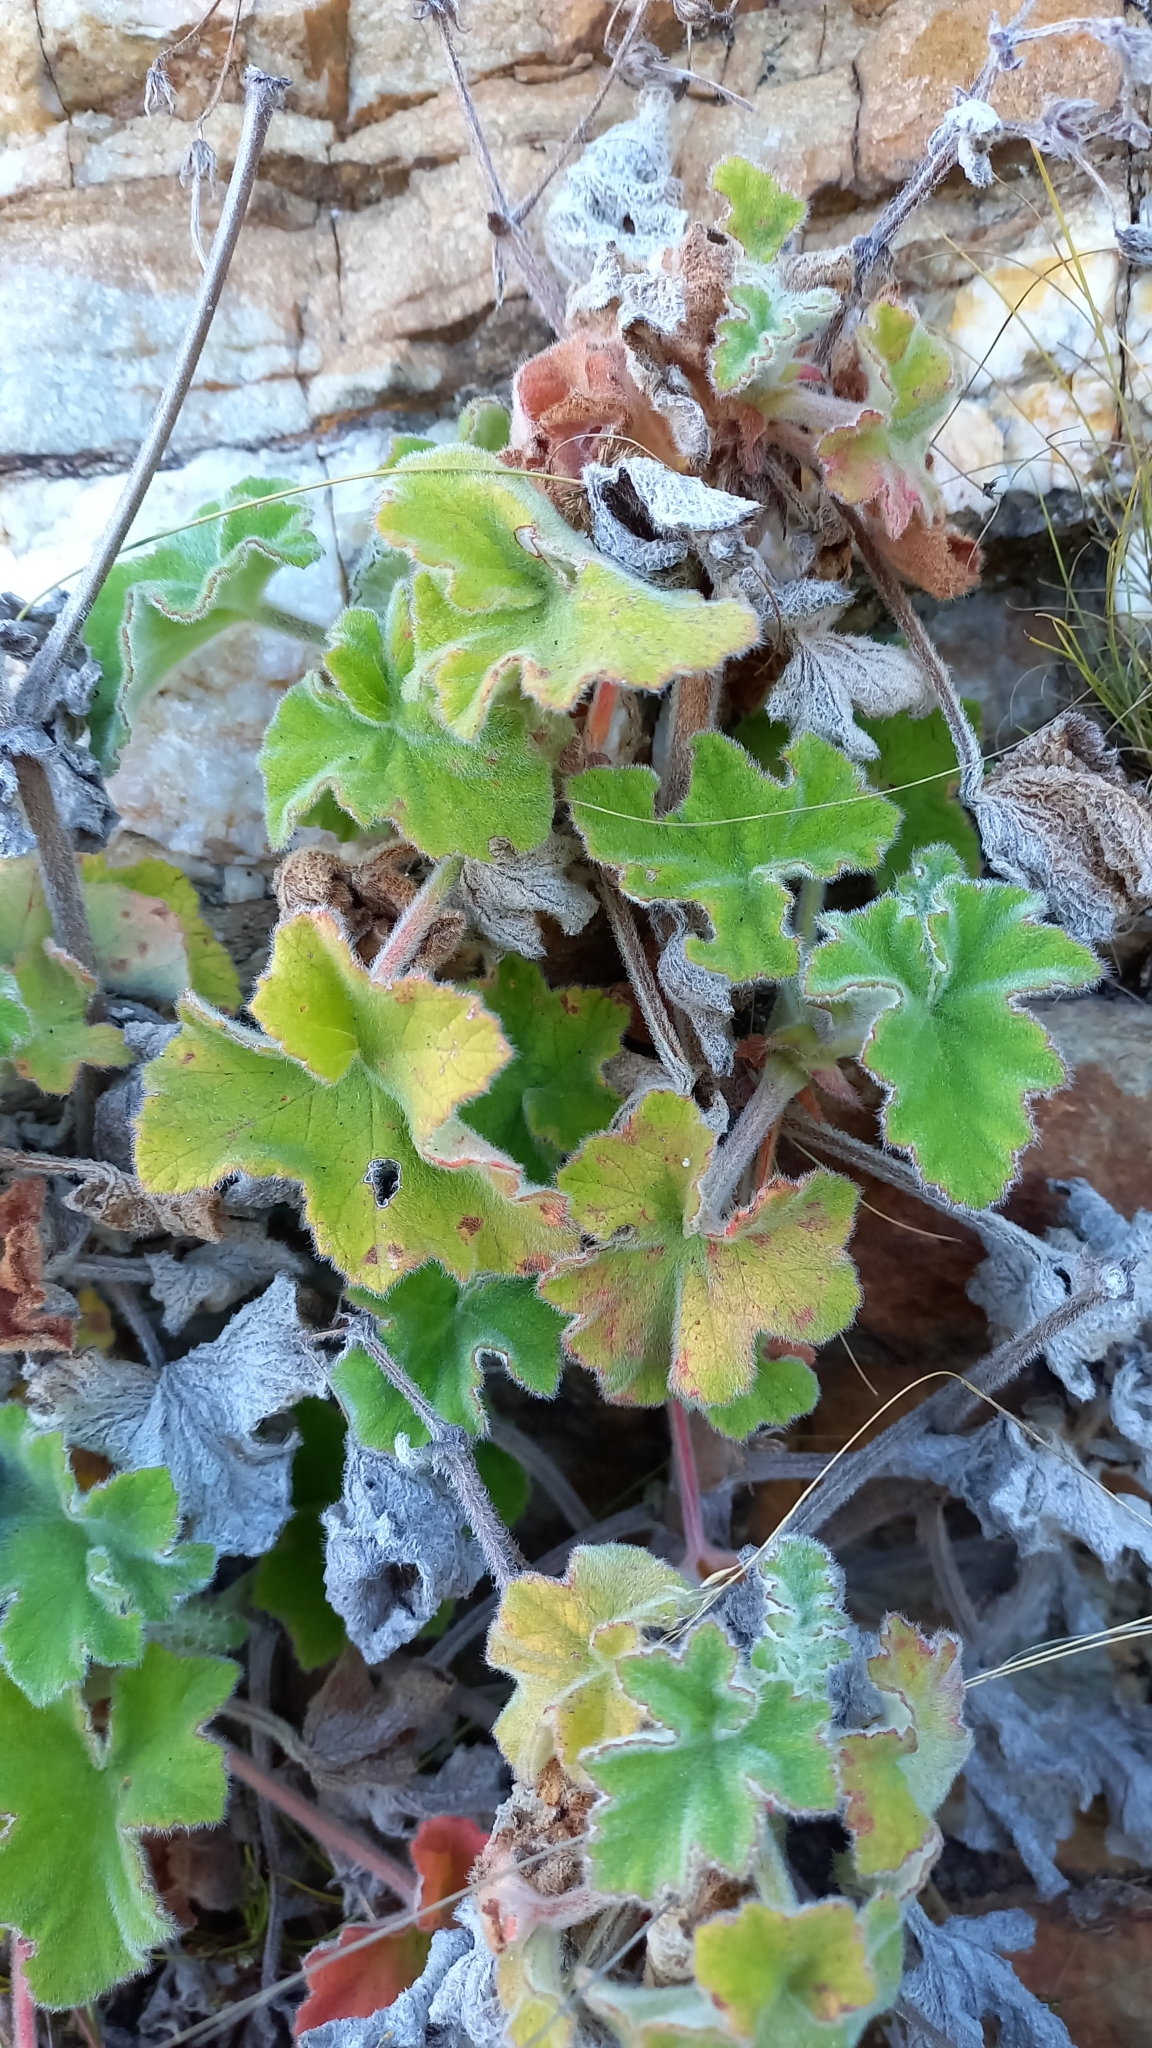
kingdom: Plantae
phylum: Tracheophyta
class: Magnoliopsida
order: Geraniales
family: Geraniaceae
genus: Pelargonium
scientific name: Pelargonium tomentosum
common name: Peppermint-scented geranium
